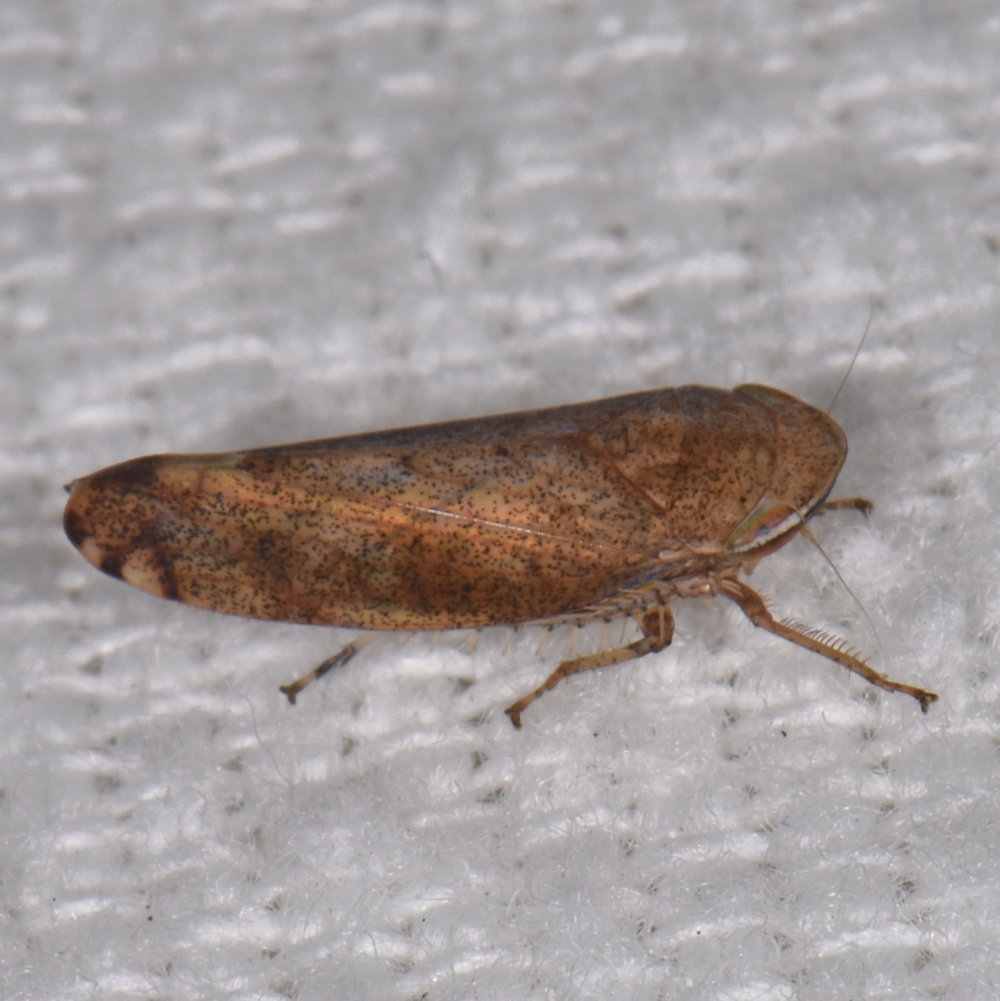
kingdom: Animalia
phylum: Arthropoda
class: Insecta
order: Hemiptera
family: Cicadellidae
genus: Fieberiella
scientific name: Fieberiella florii
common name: Flor’s leafhopper
